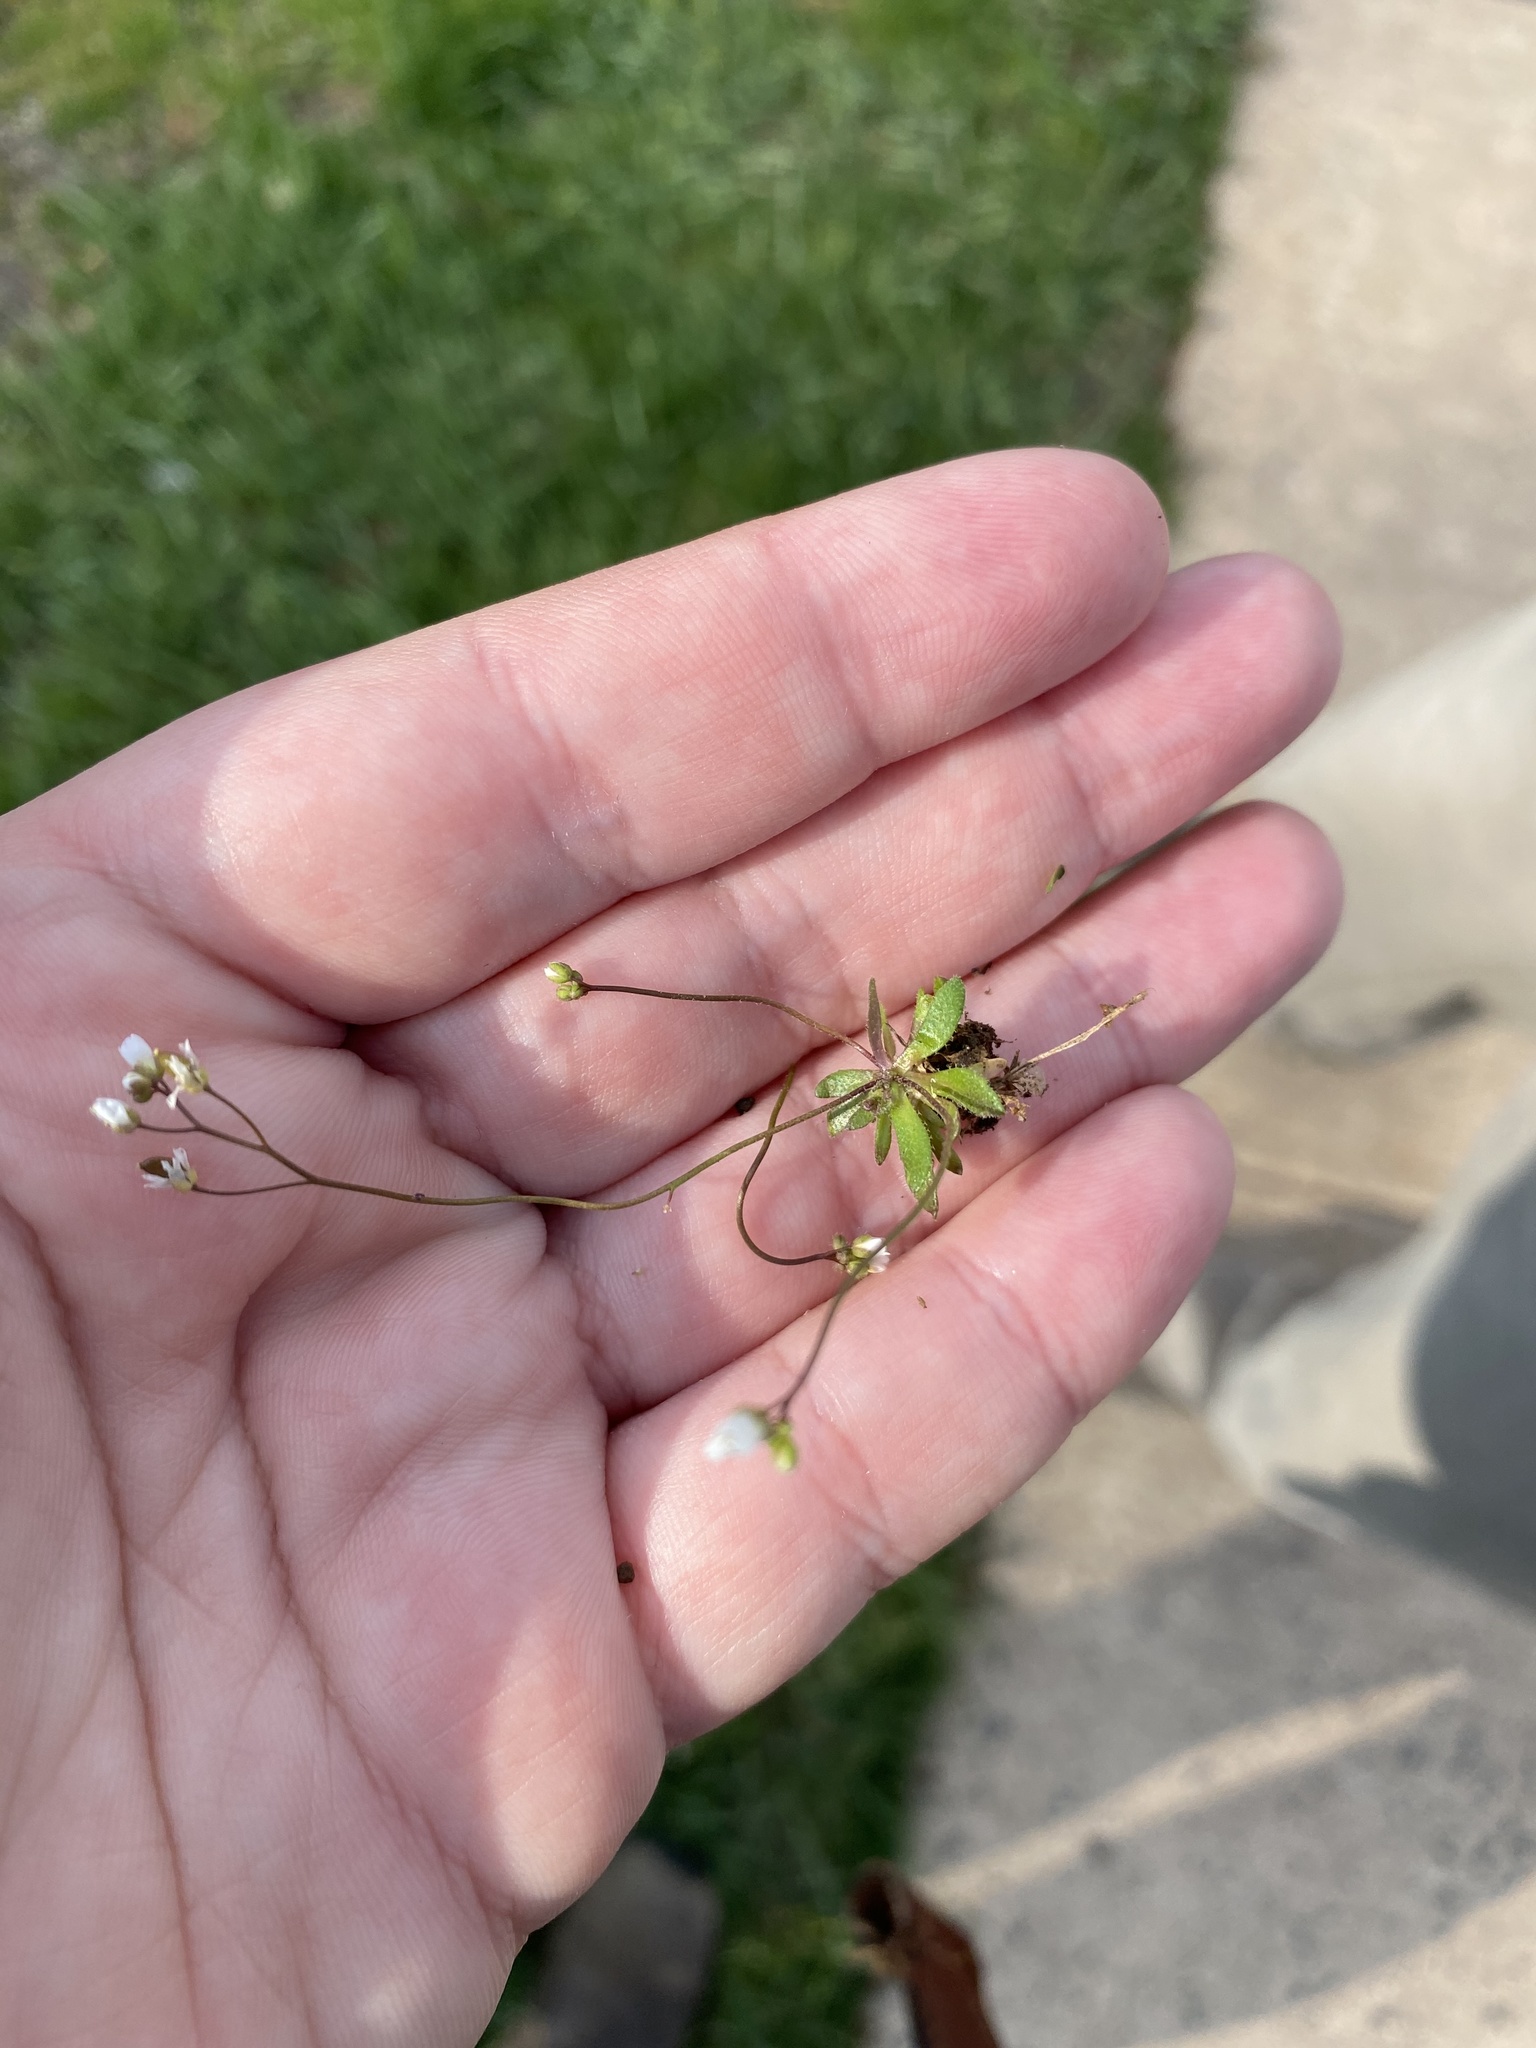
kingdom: Plantae
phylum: Tracheophyta
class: Magnoliopsida
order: Brassicales
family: Brassicaceae
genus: Draba
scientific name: Draba verna
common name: Spring draba
